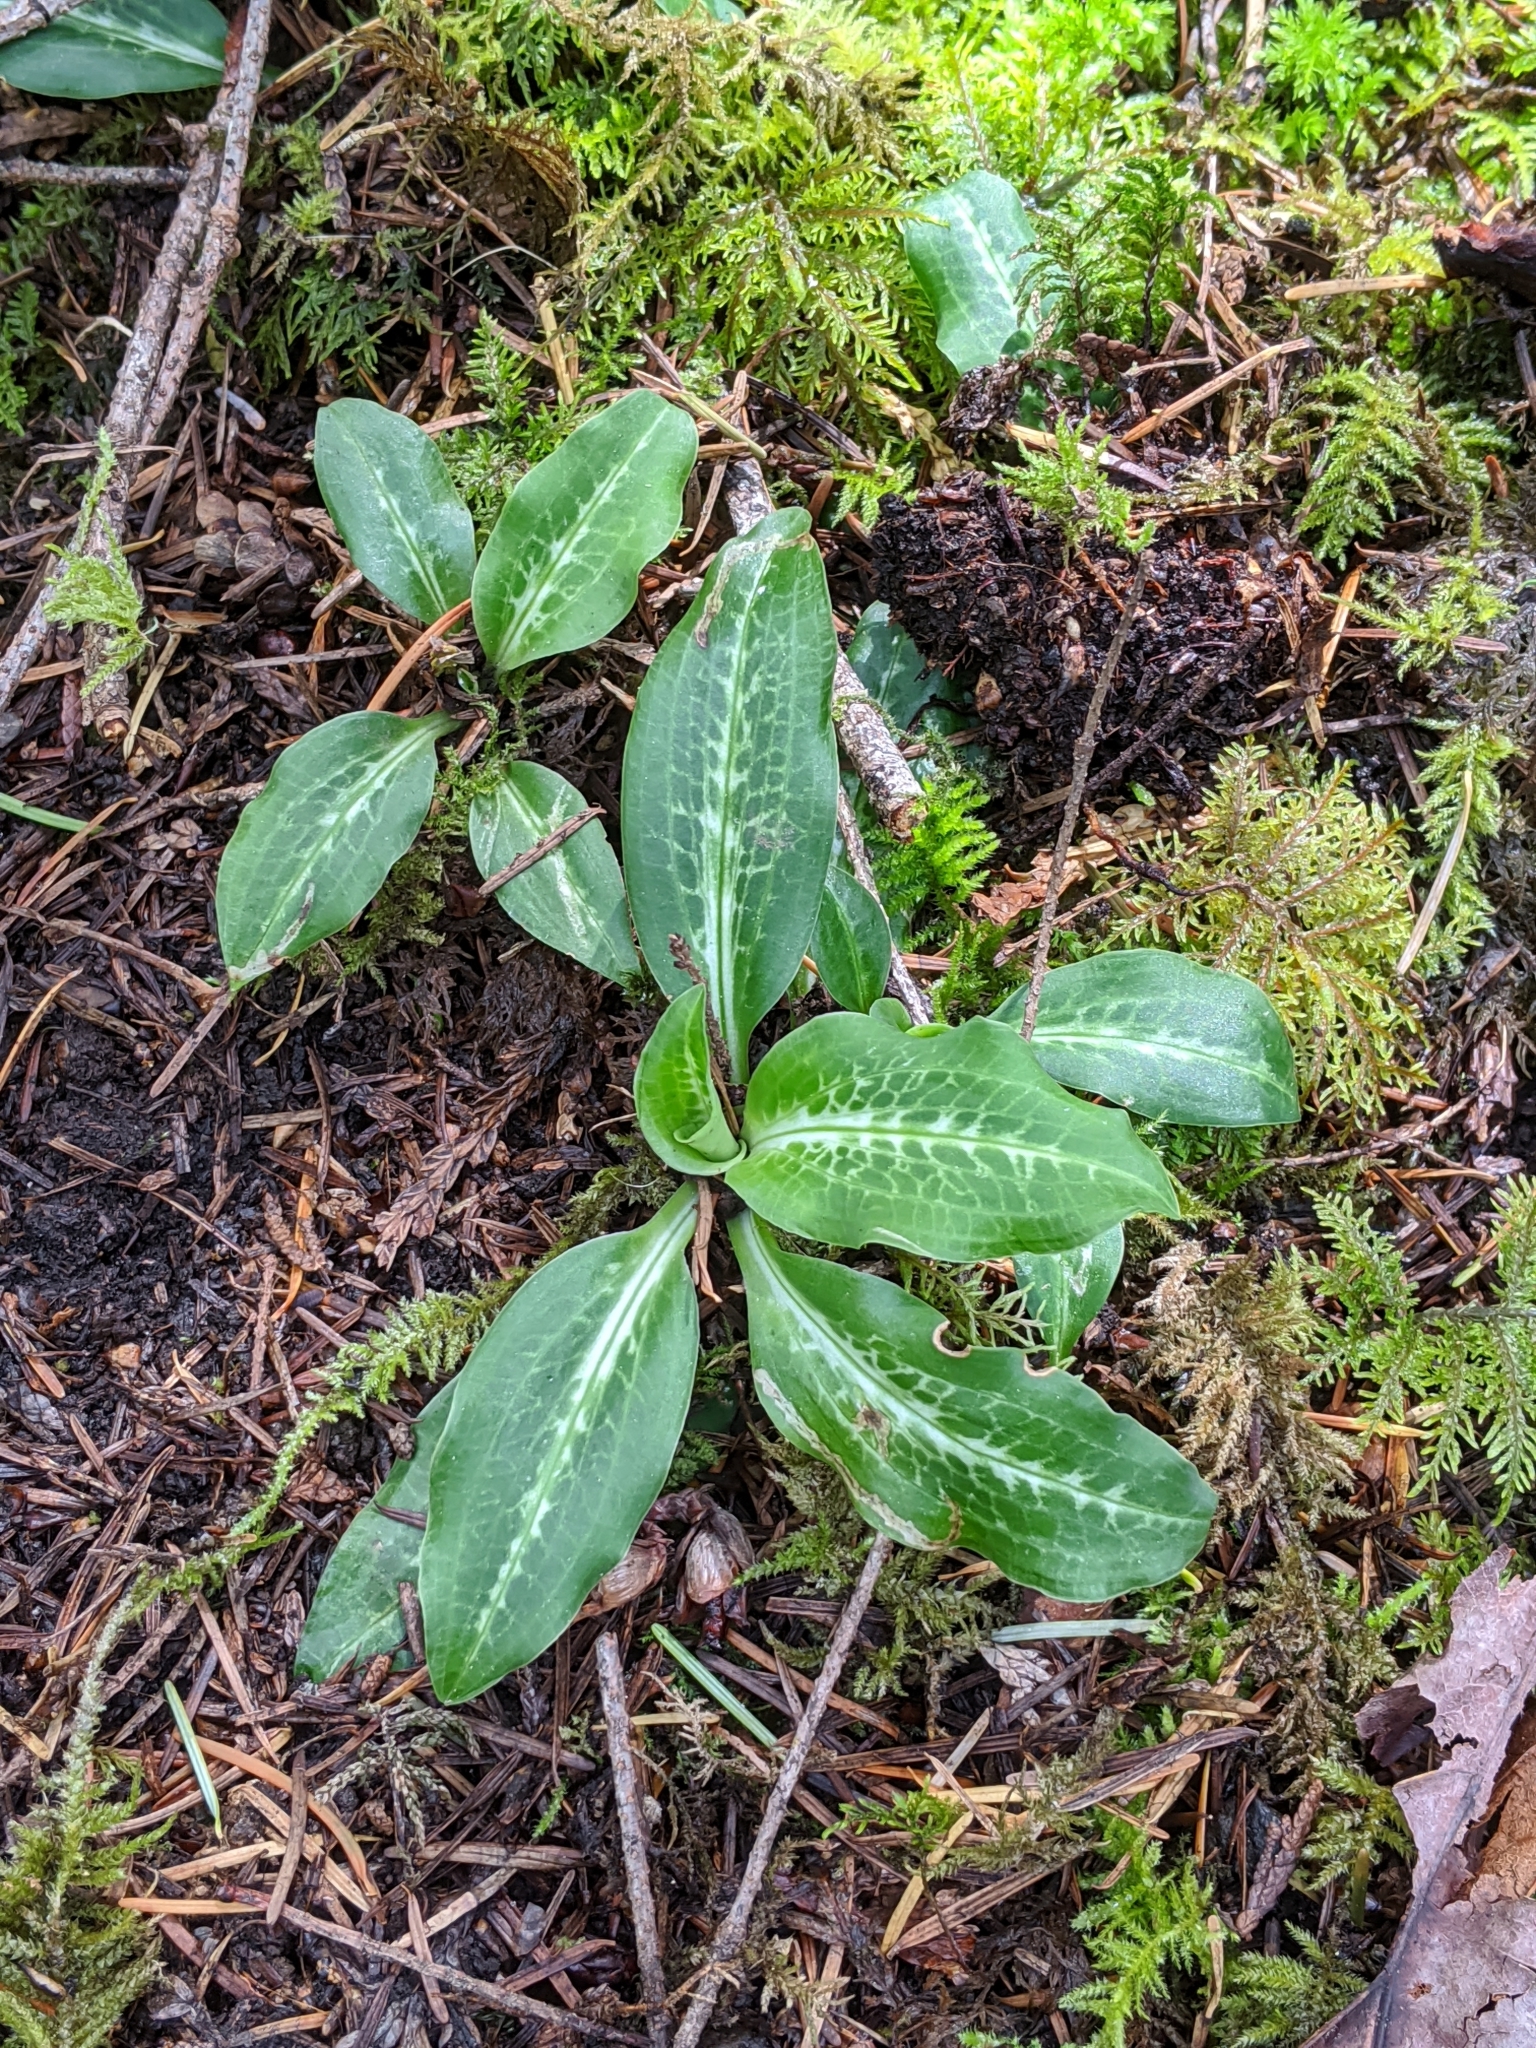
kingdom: Plantae
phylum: Tracheophyta
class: Liliopsida
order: Asparagales
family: Orchidaceae
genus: Goodyera
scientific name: Goodyera oblongifolia
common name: Giant rattlesnake-plantain
